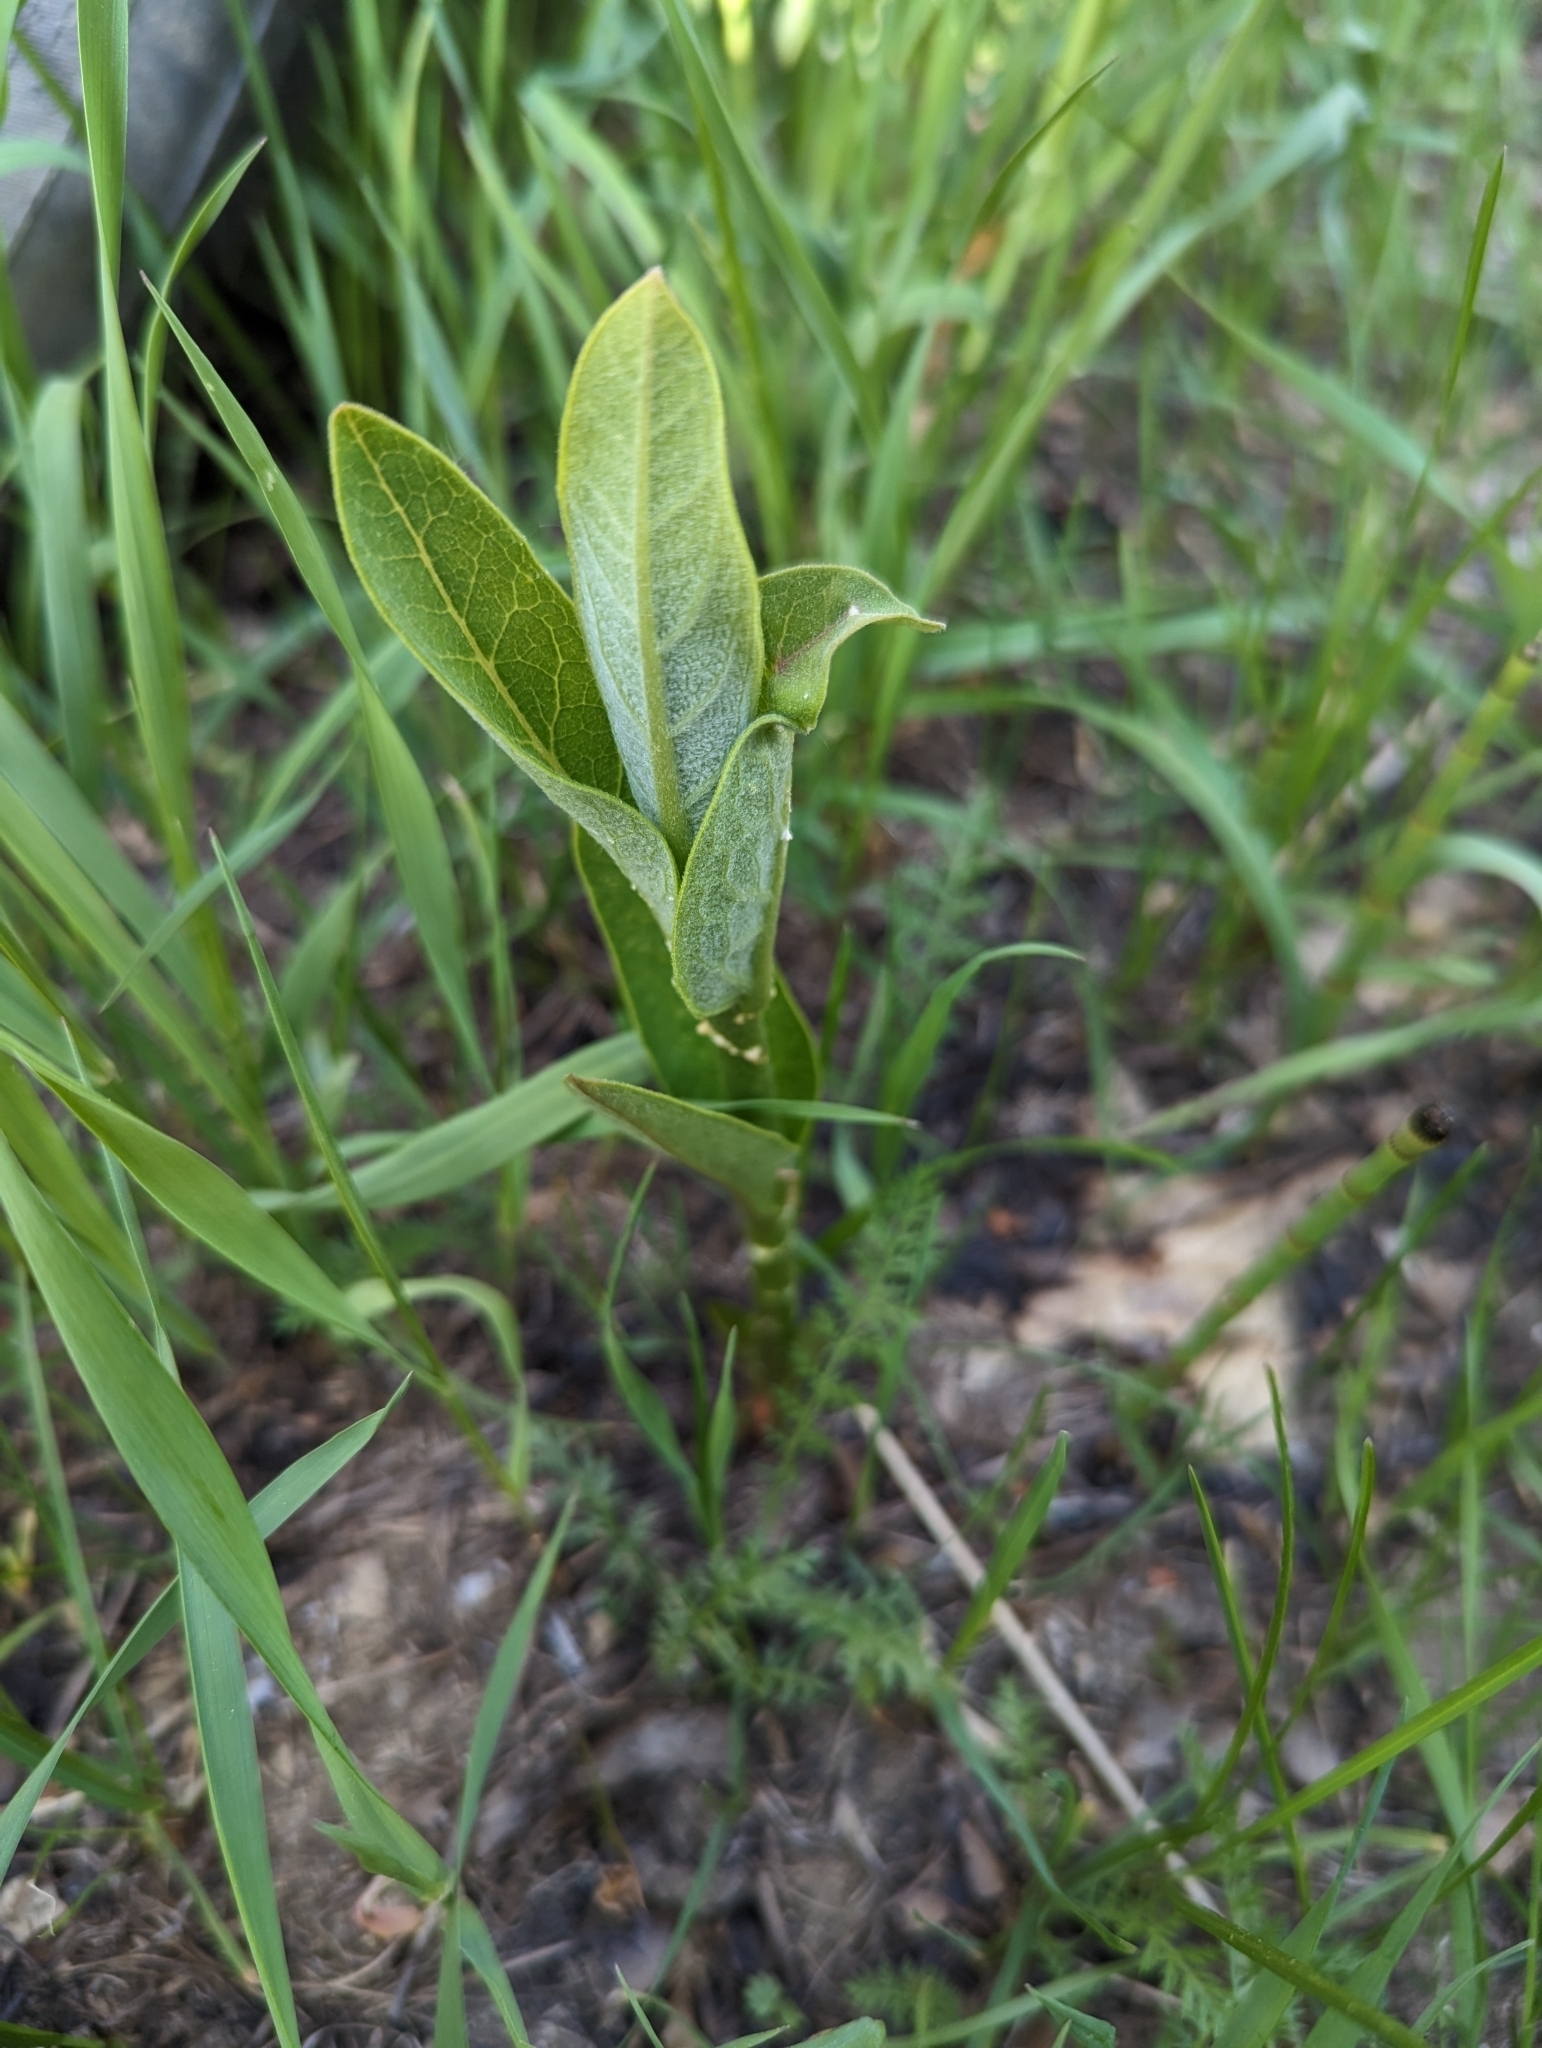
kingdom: Plantae
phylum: Tracheophyta
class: Magnoliopsida
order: Gentianales
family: Apocynaceae
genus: Asclepias
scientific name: Asclepias syriaca
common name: Common milkweed
